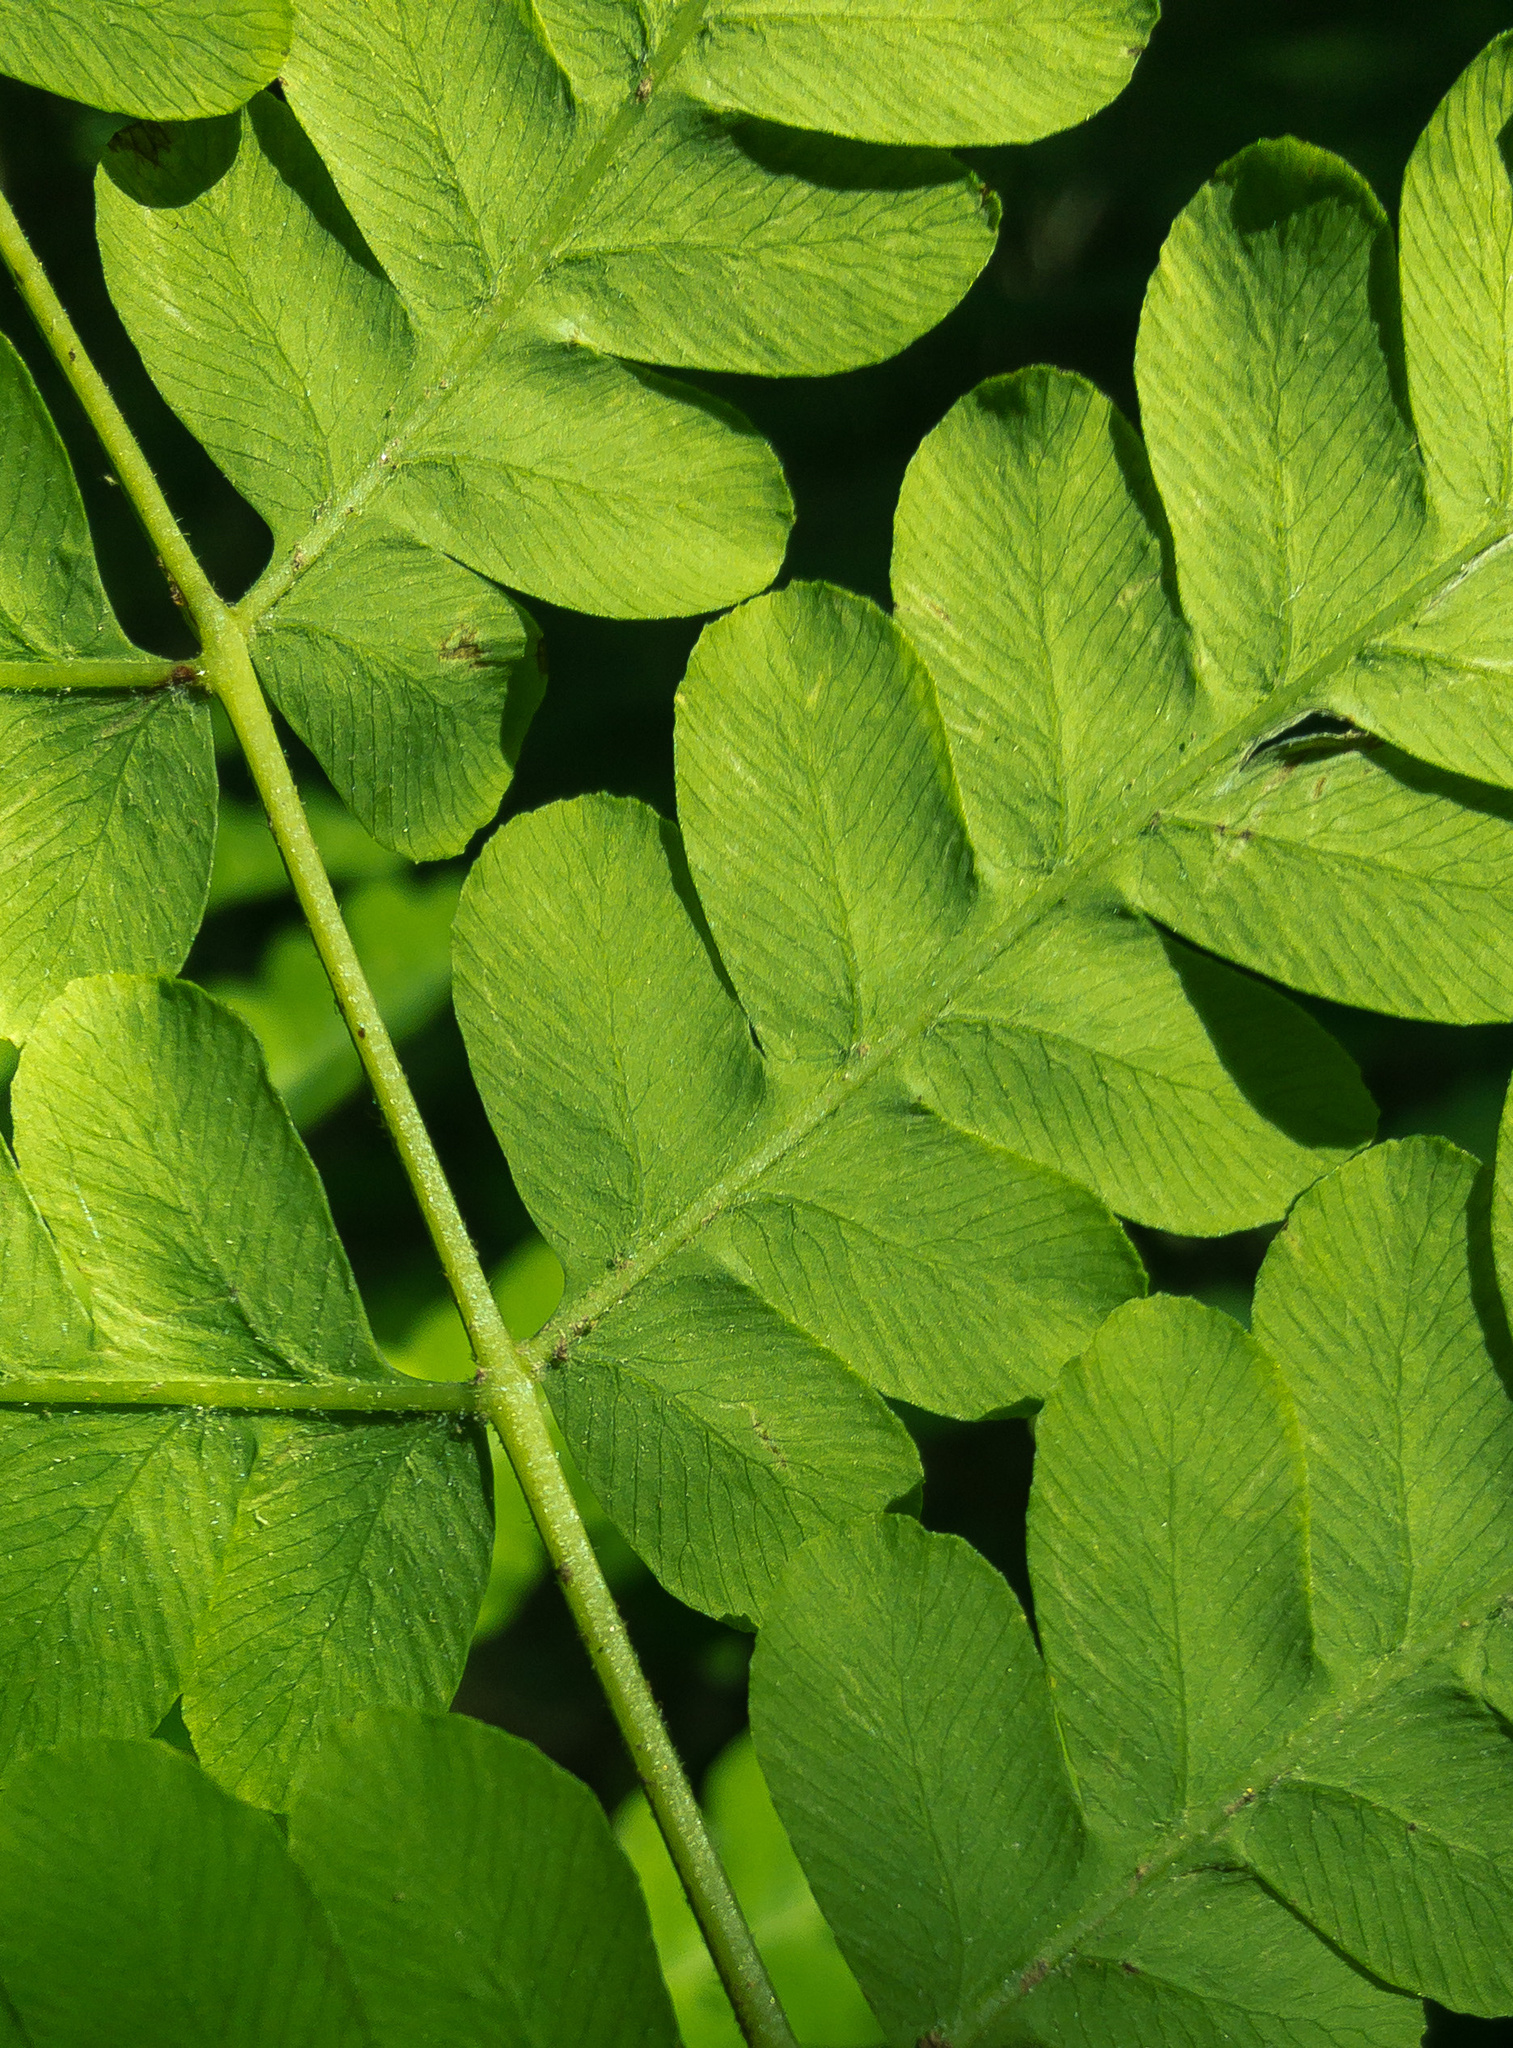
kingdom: Plantae
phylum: Tracheophyta
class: Polypodiopsida
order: Osmundales
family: Osmundaceae
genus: Claytosmunda
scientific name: Claytosmunda claytoniana
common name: Clayton's fern
